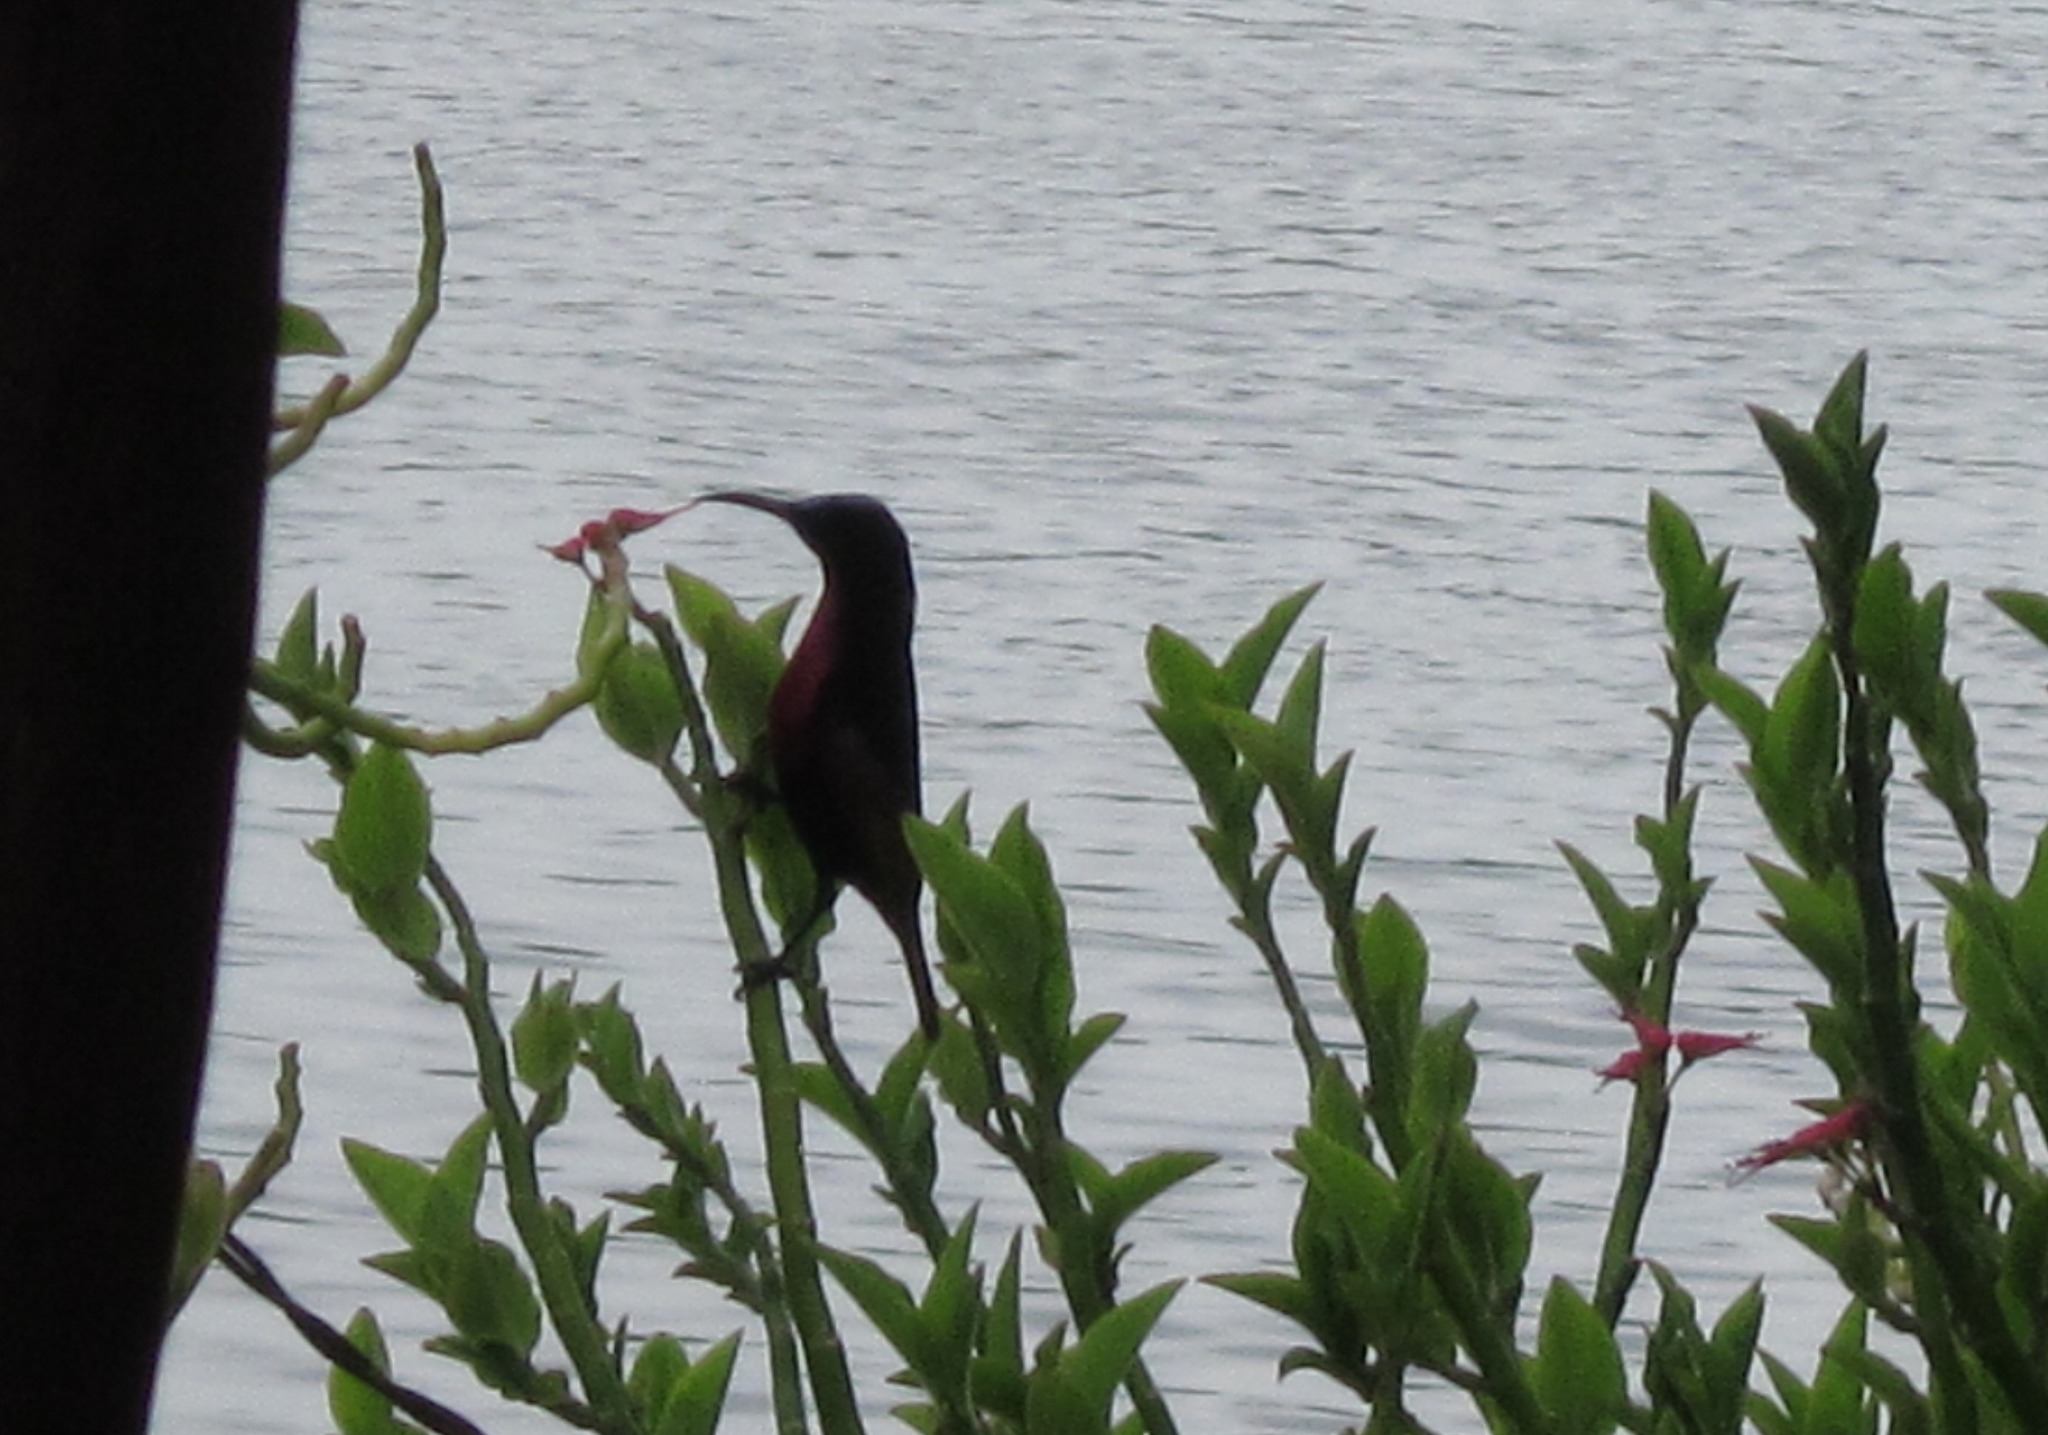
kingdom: Animalia
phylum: Chordata
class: Aves
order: Passeriformes
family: Nectariniidae
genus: Chalcomitra
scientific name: Chalcomitra senegalensis
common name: Scarlet-chested sunbird
